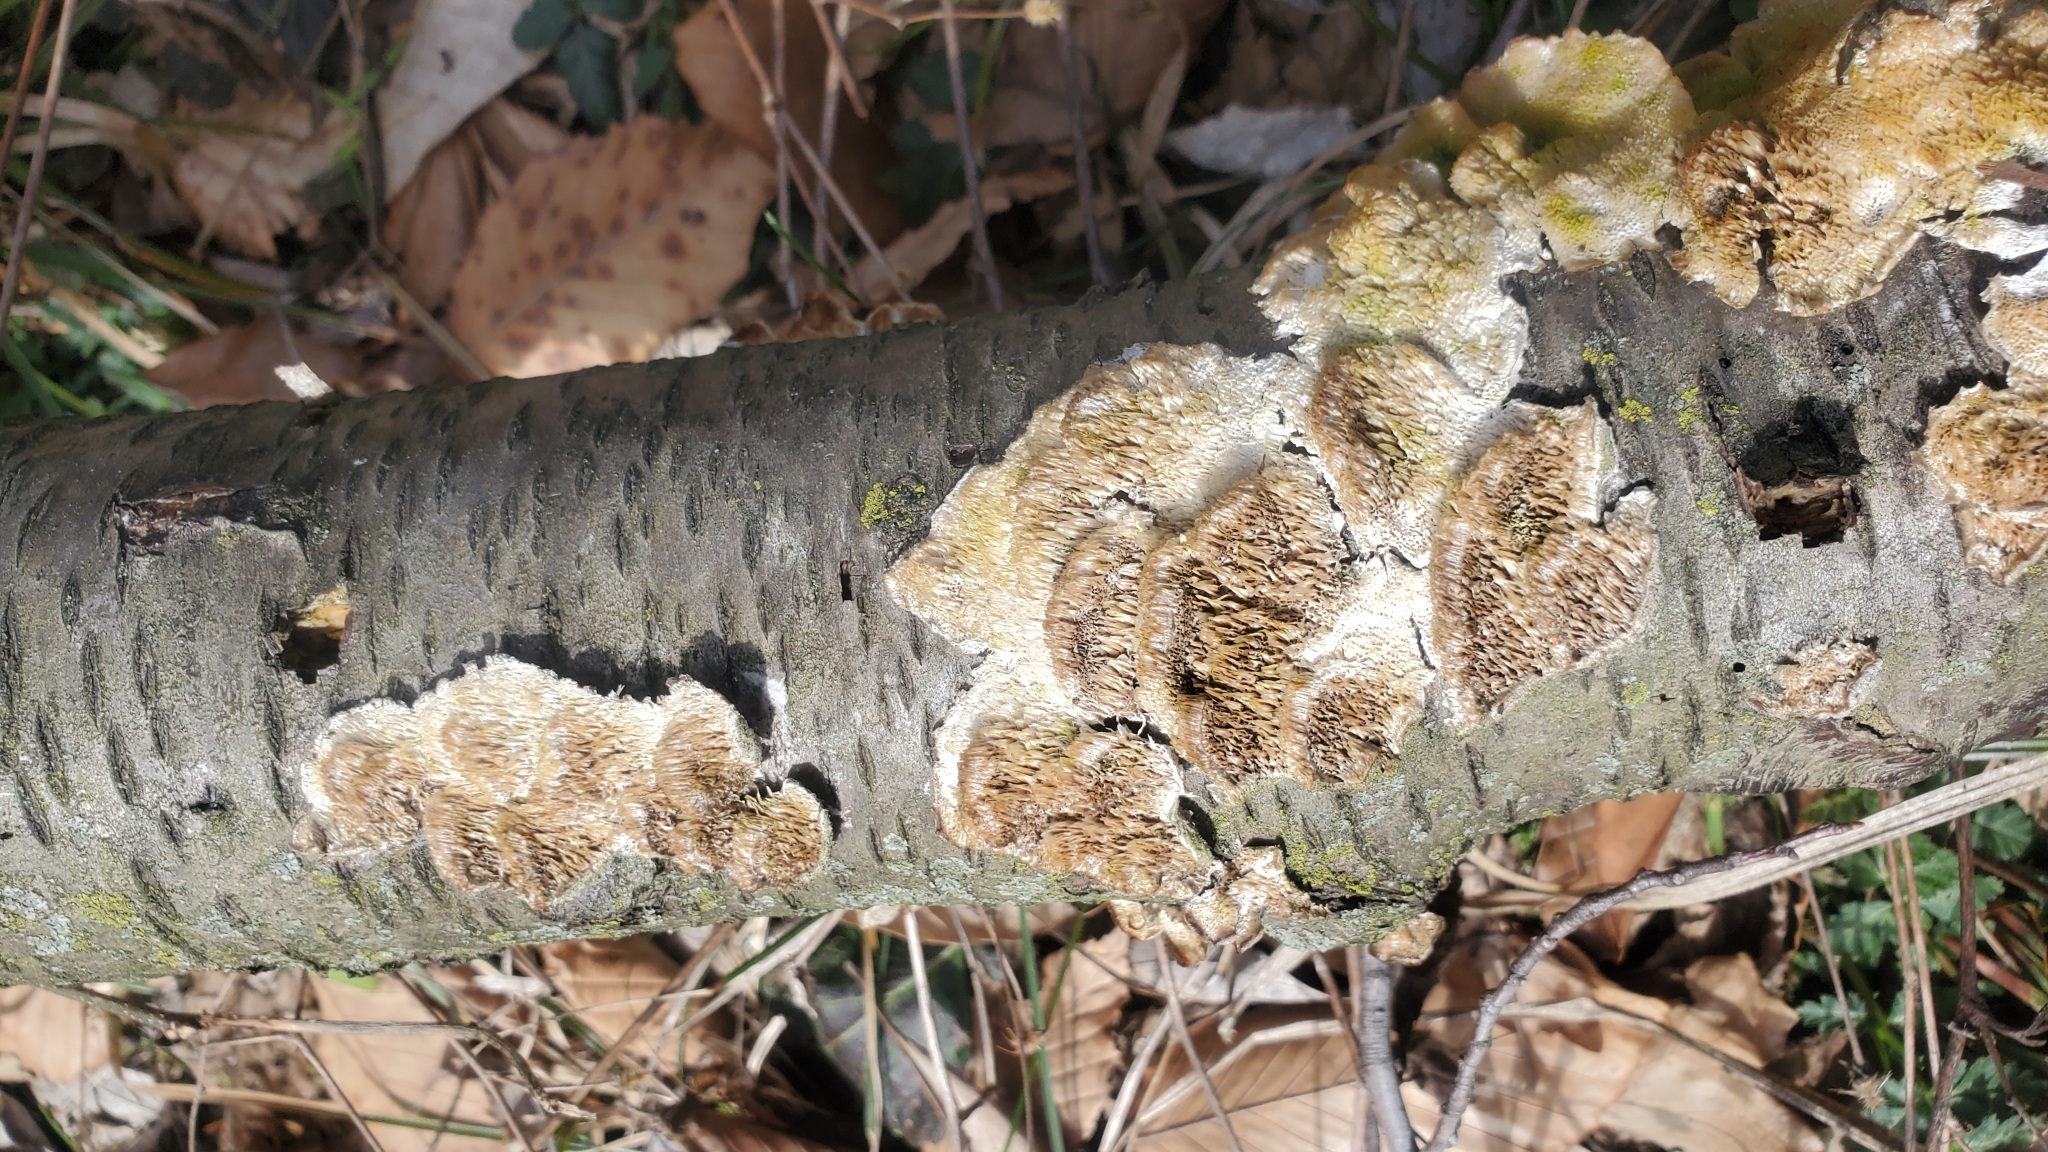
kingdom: Fungi
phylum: Basidiomycota
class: Agaricomycetes
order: Polyporales
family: Irpicaceae
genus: Irpex
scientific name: Irpex lacteus
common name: Milk-white toothed polypore
